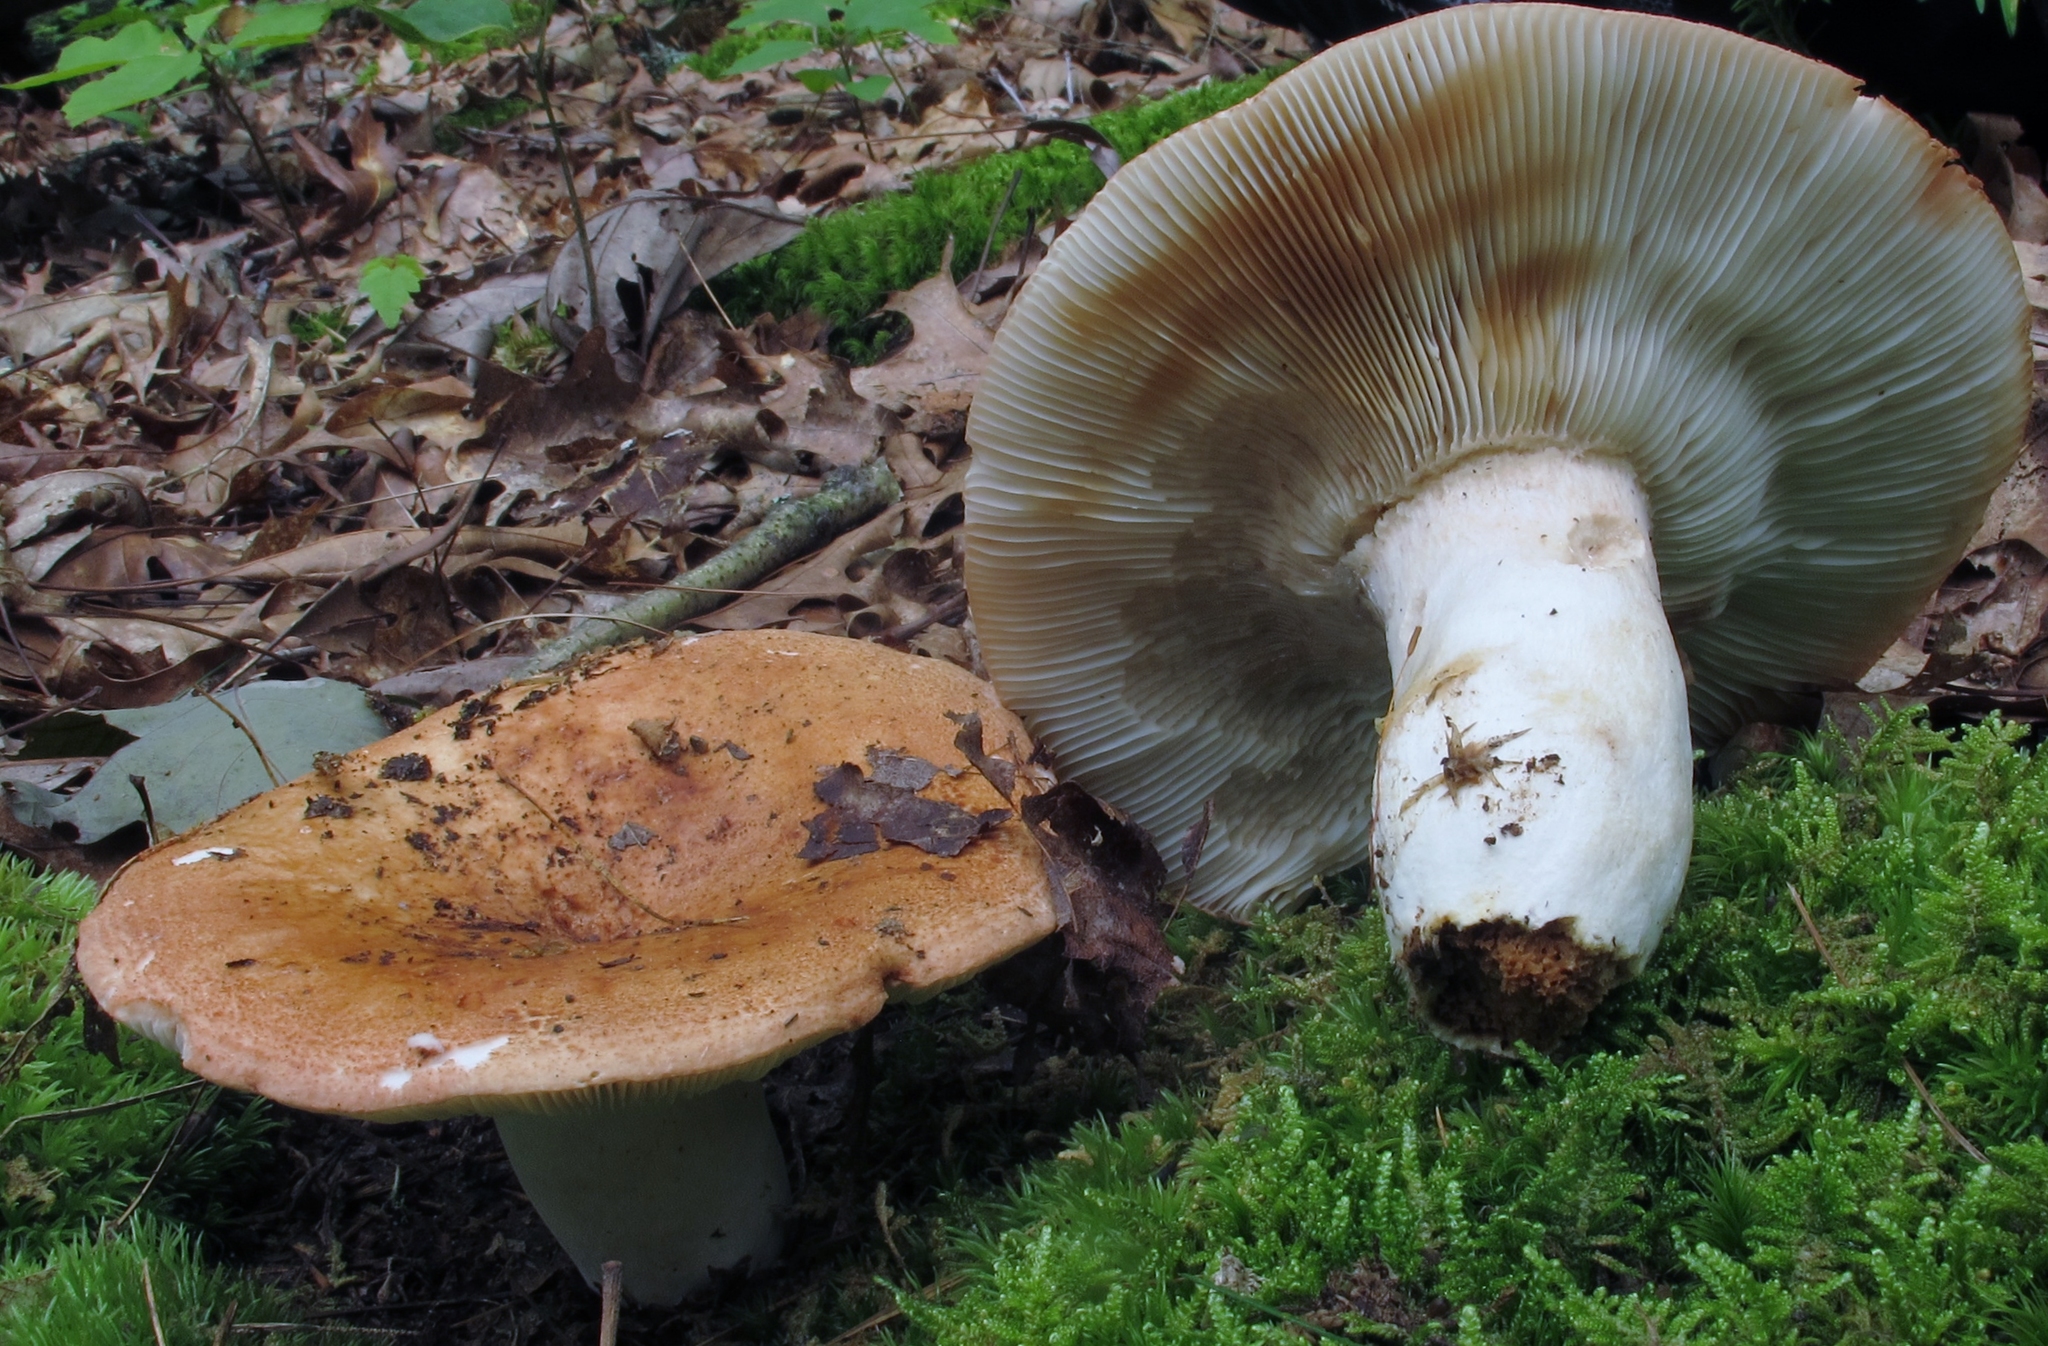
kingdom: Fungi
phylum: Basidiomycota
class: Agaricomycetes
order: Russulales
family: Russulaceae
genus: Russula
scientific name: Russula compacta
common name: Fishbiscuit russula
